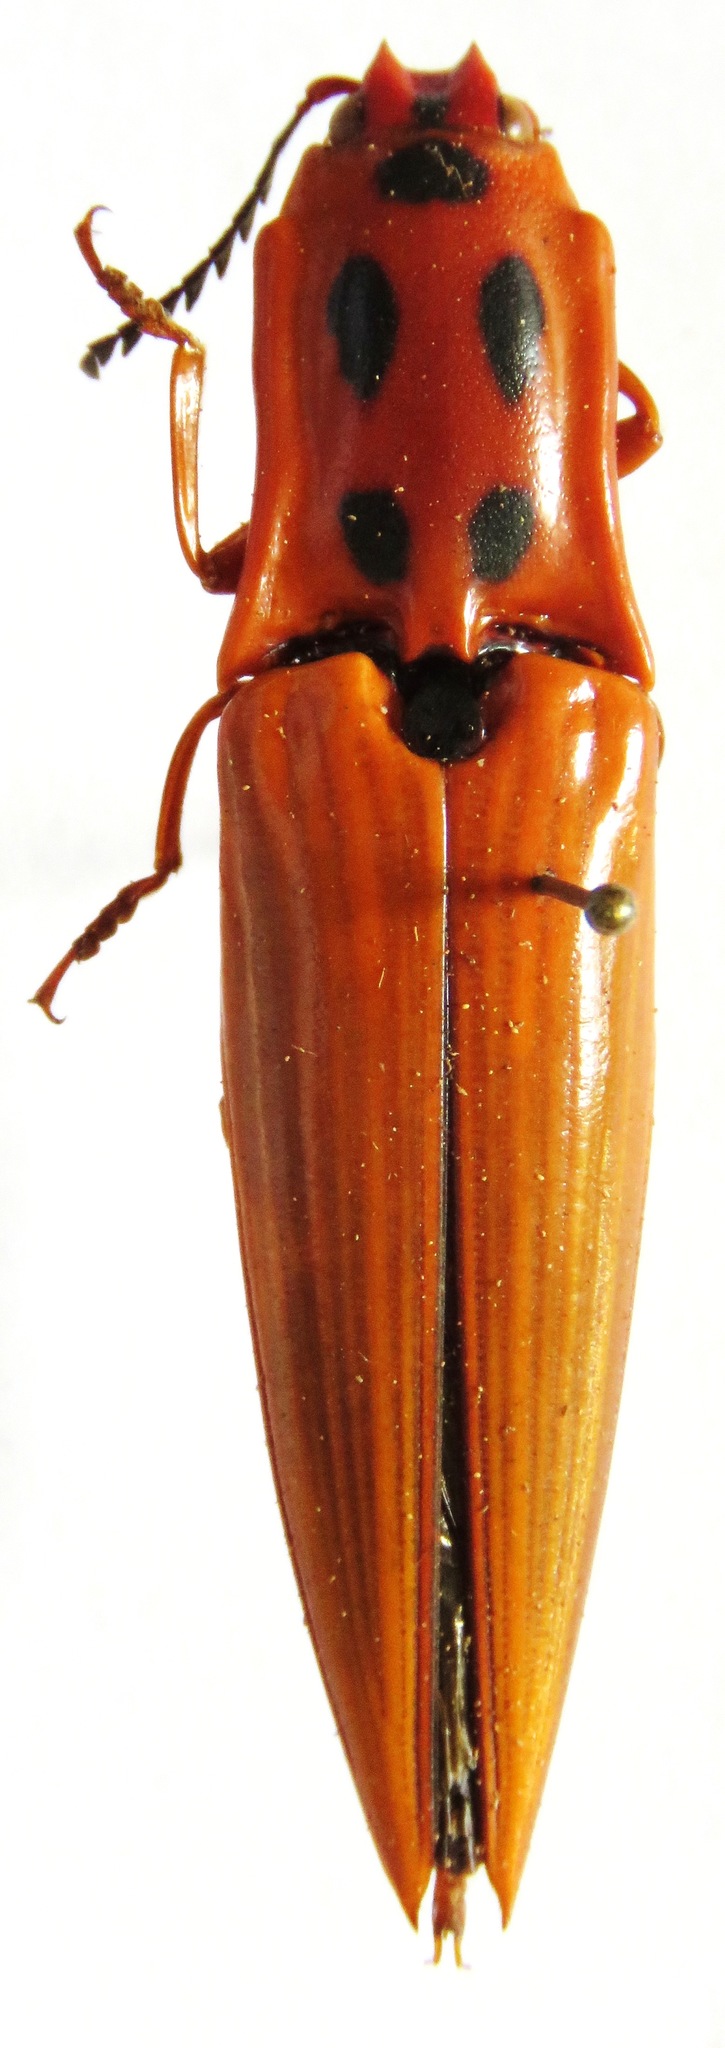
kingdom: Animalia
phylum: Arthropoda
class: Insecta
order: Coleoptera
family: Elateridae
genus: Semiotus
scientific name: Semiotus insignis
